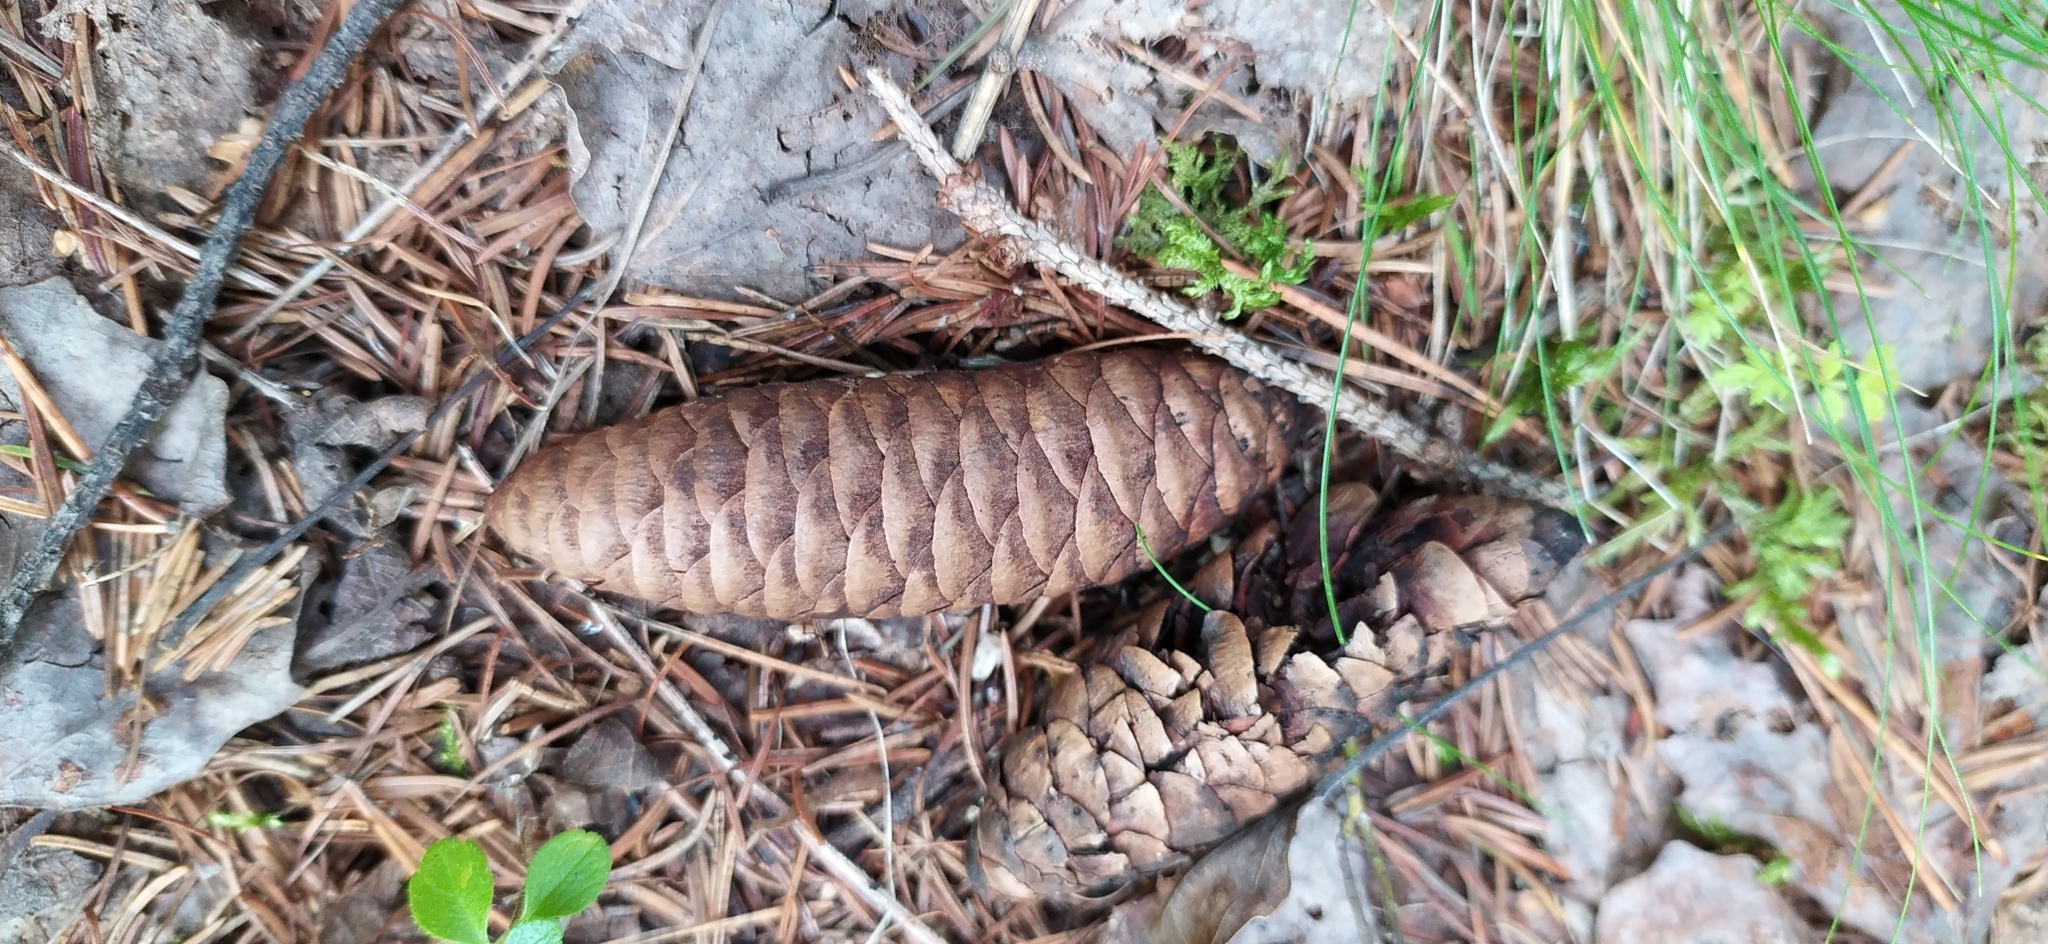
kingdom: Plantae
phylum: Tracheophyta
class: Pinopsida
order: Pinales
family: Pinaceae
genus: Picea
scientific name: Picea obovata
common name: Siberian spruce
